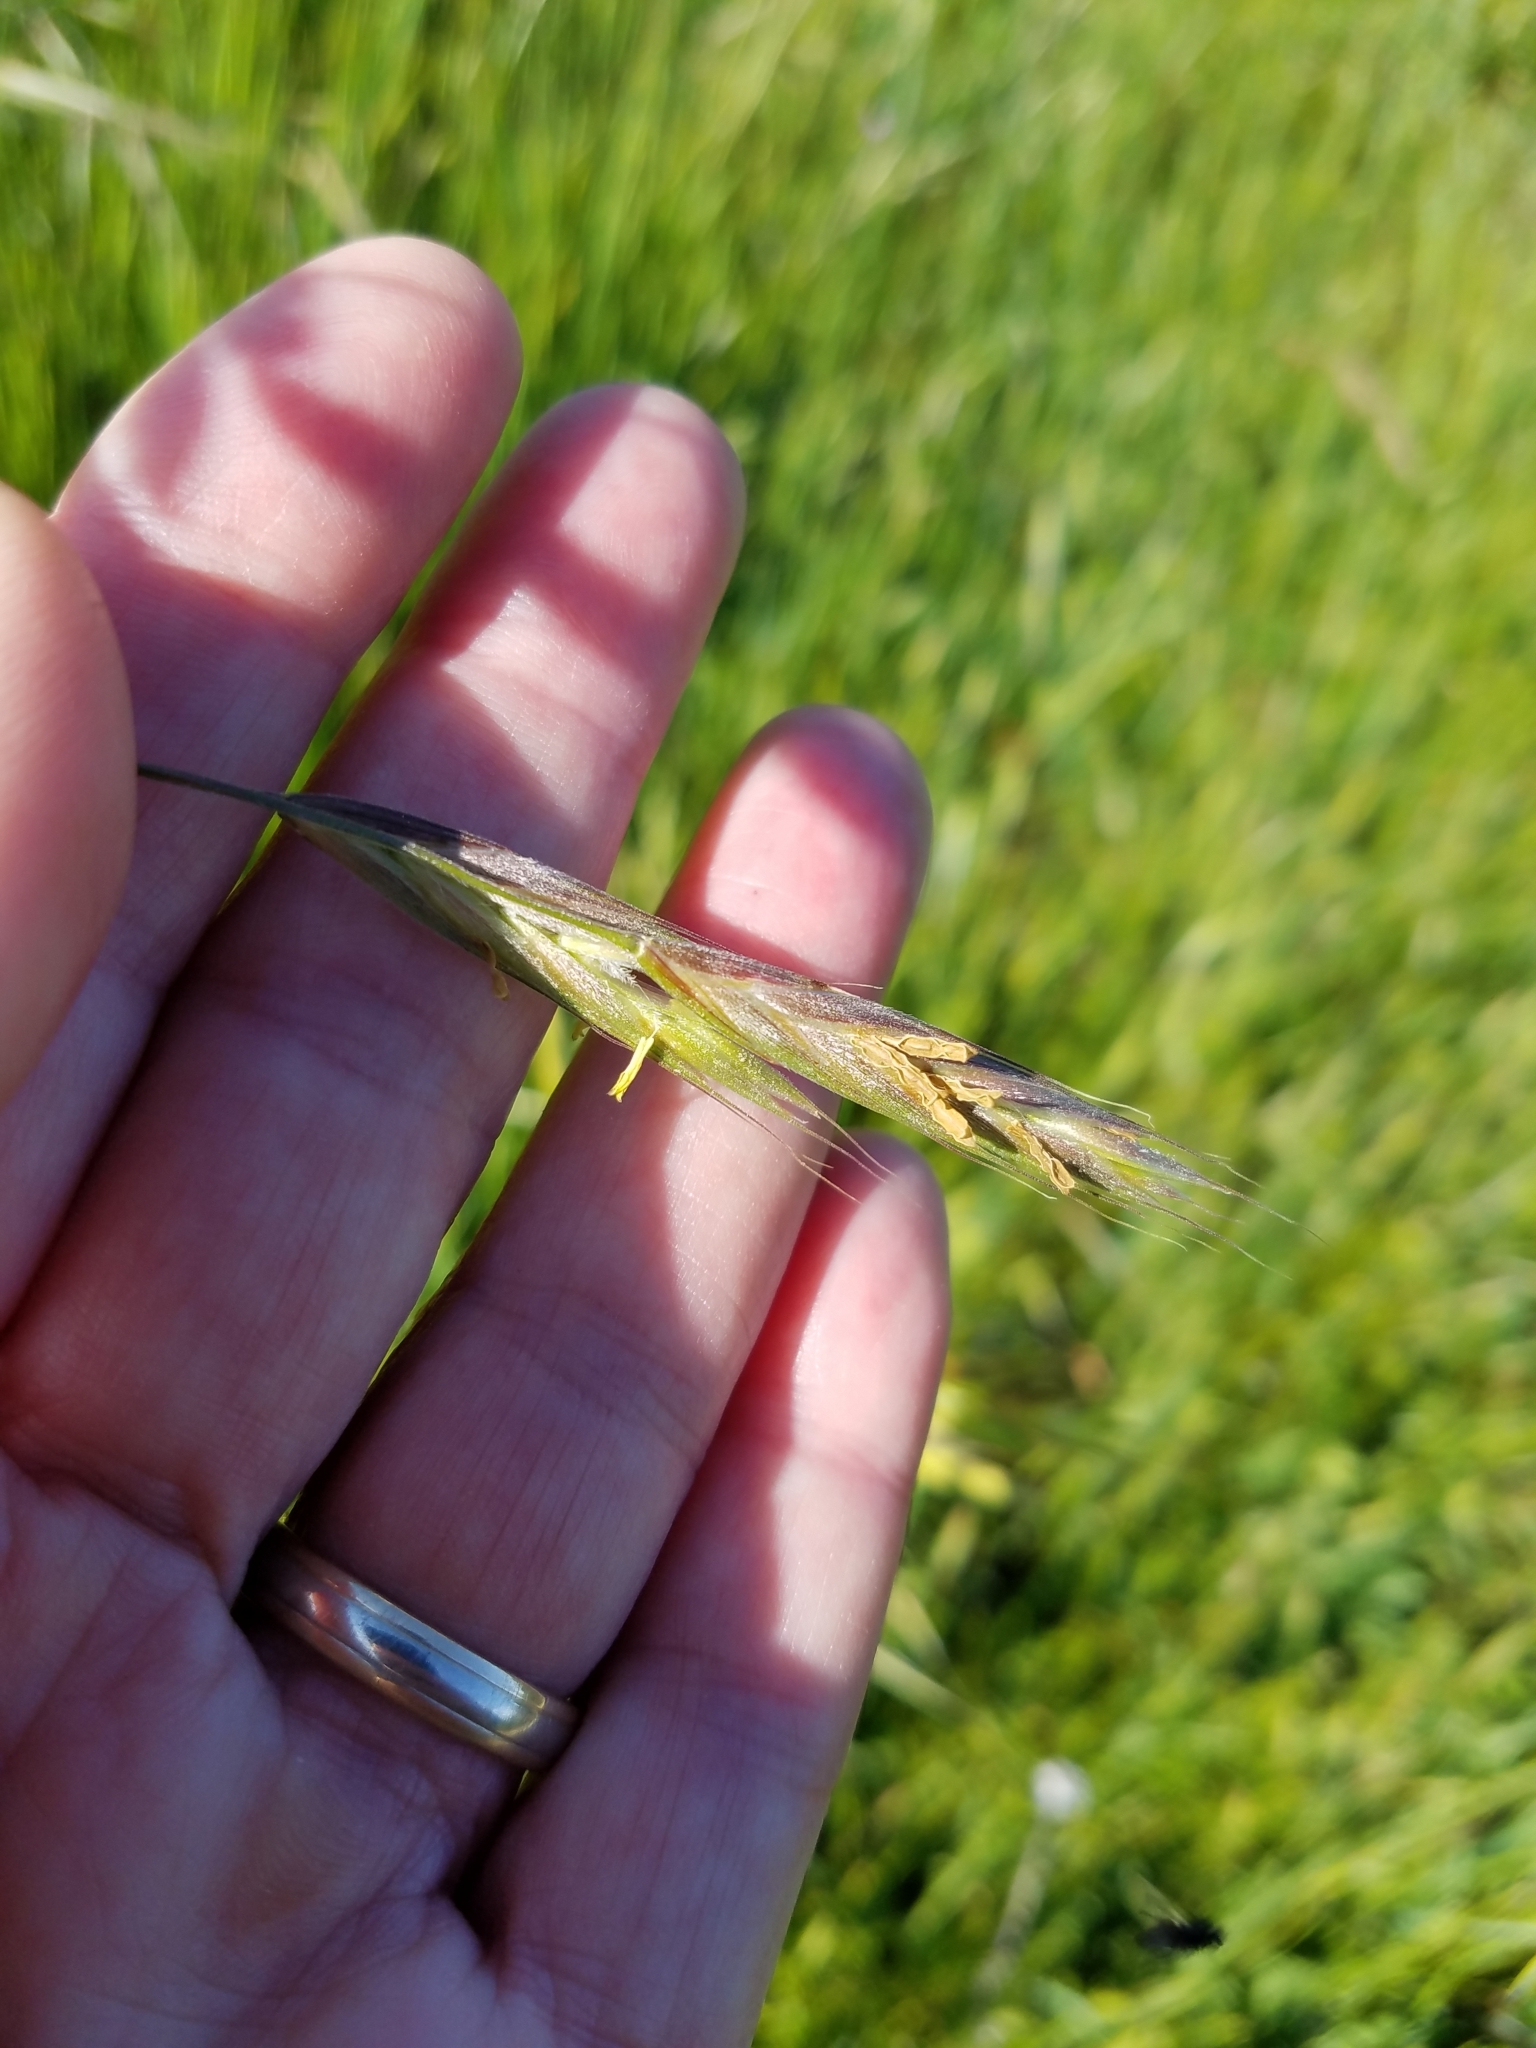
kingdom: Plantae
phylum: Tracheophyta
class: Liliopsida
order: Poales
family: Poaceae
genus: Bromus
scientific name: Bromus carinatus
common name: Mountain brome
